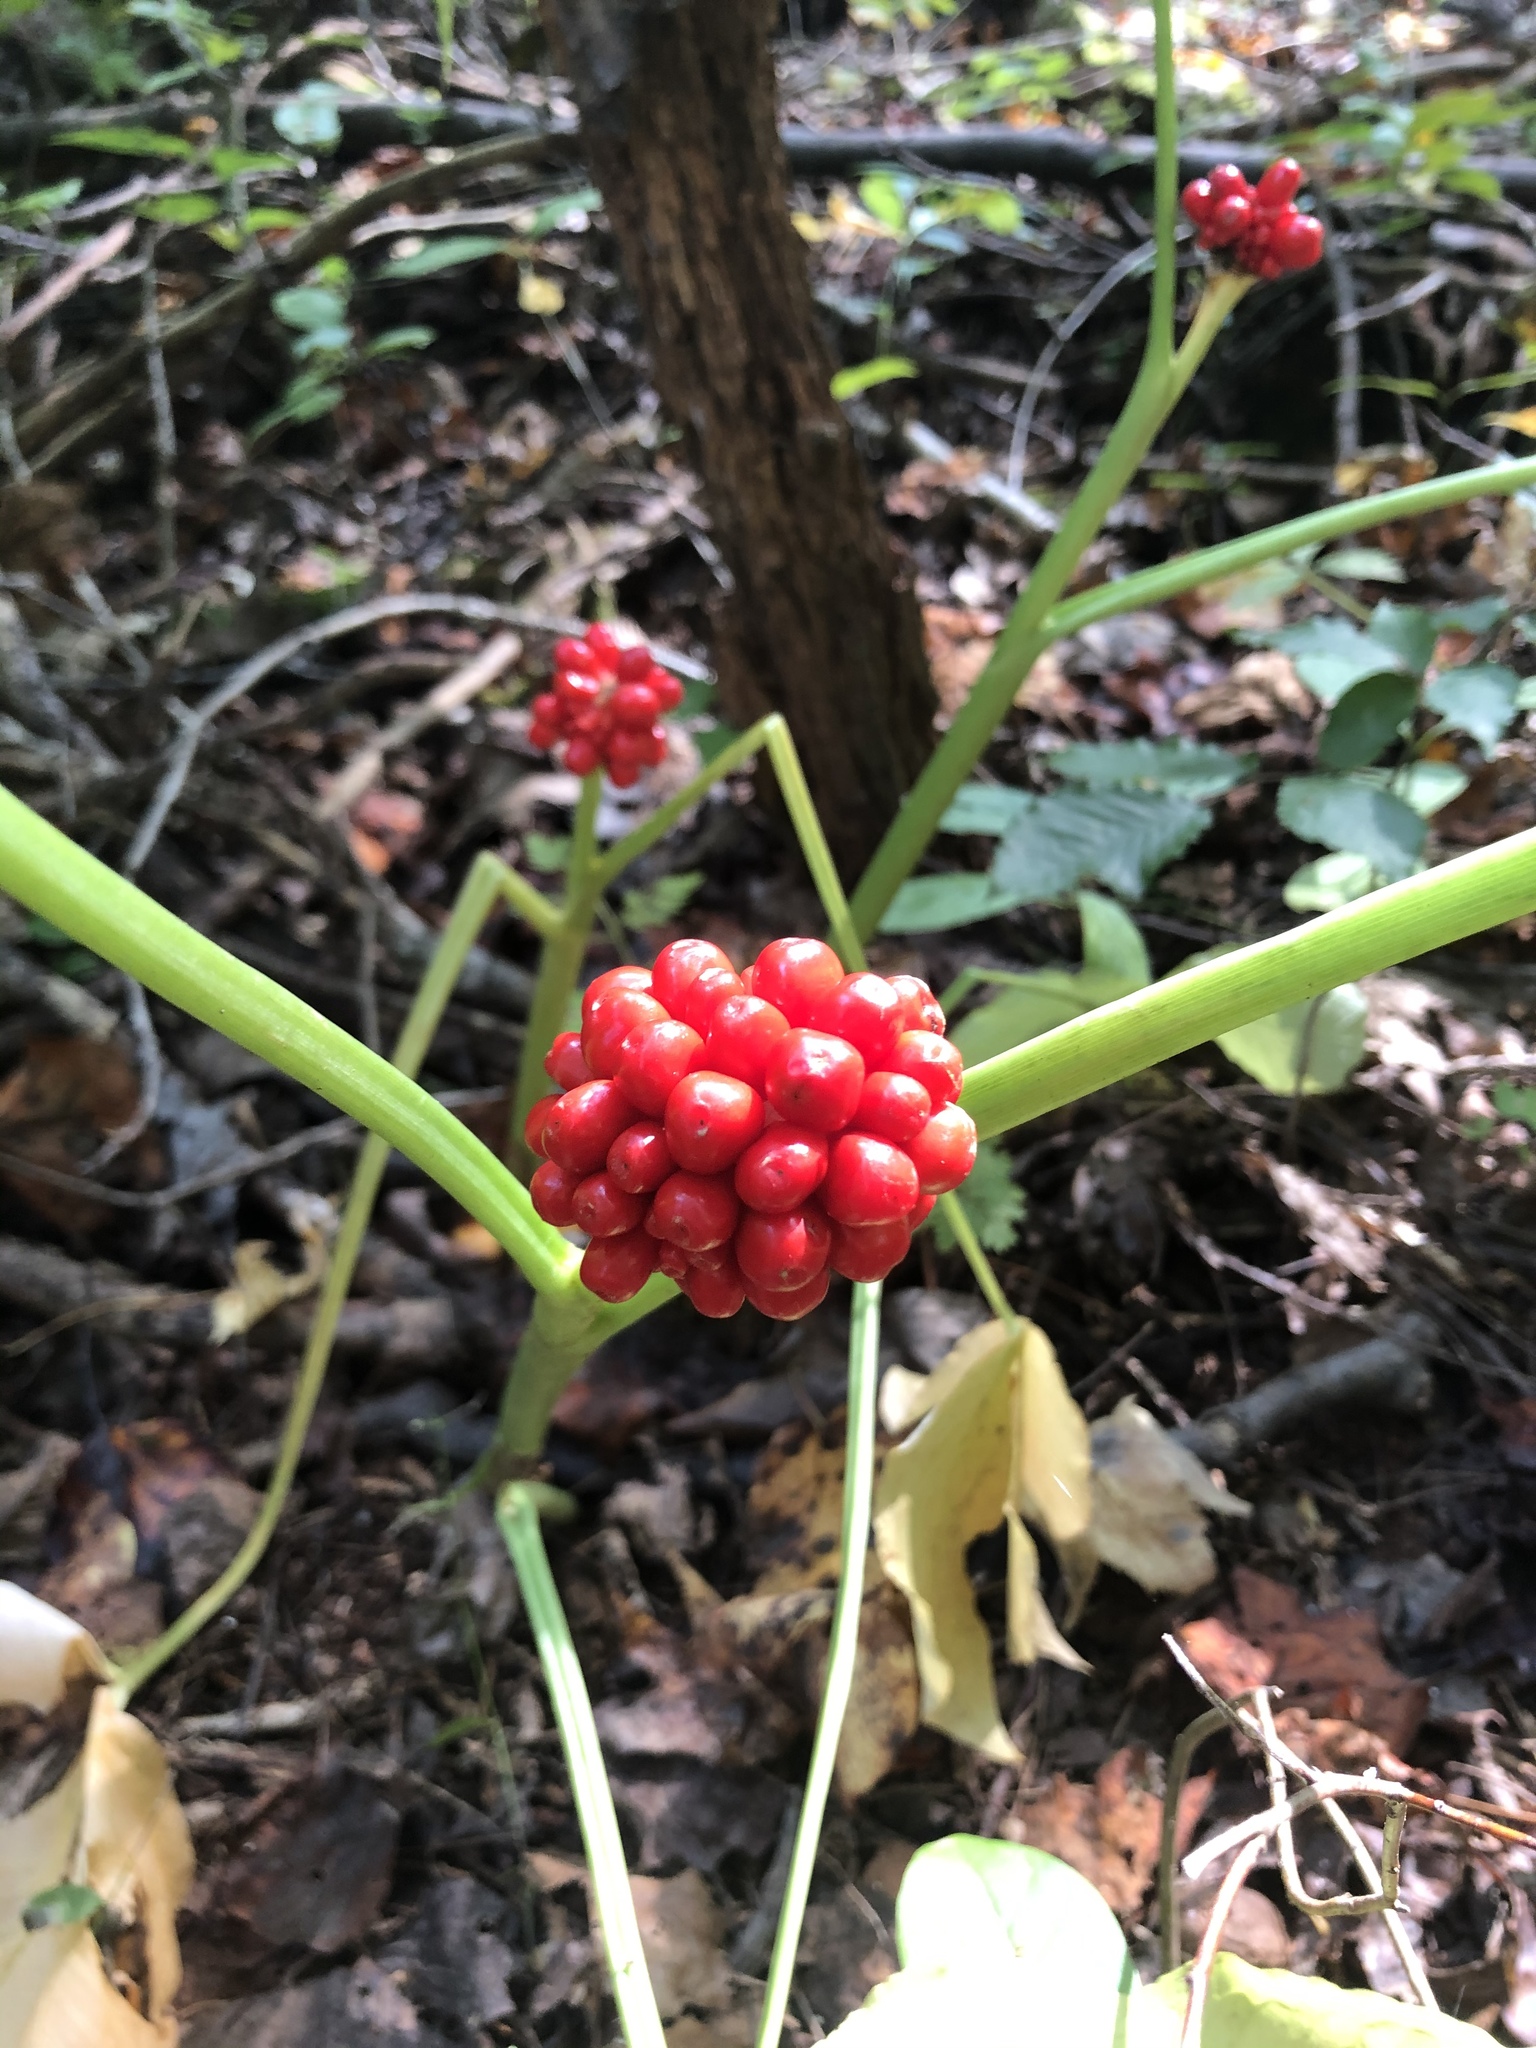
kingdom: Plantae
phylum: Tracheophyta
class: Liliopsida
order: Alismatales
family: Araceae
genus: Arisaema
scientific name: Arisaema triphyllum
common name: Jack-in-the-pulpit
